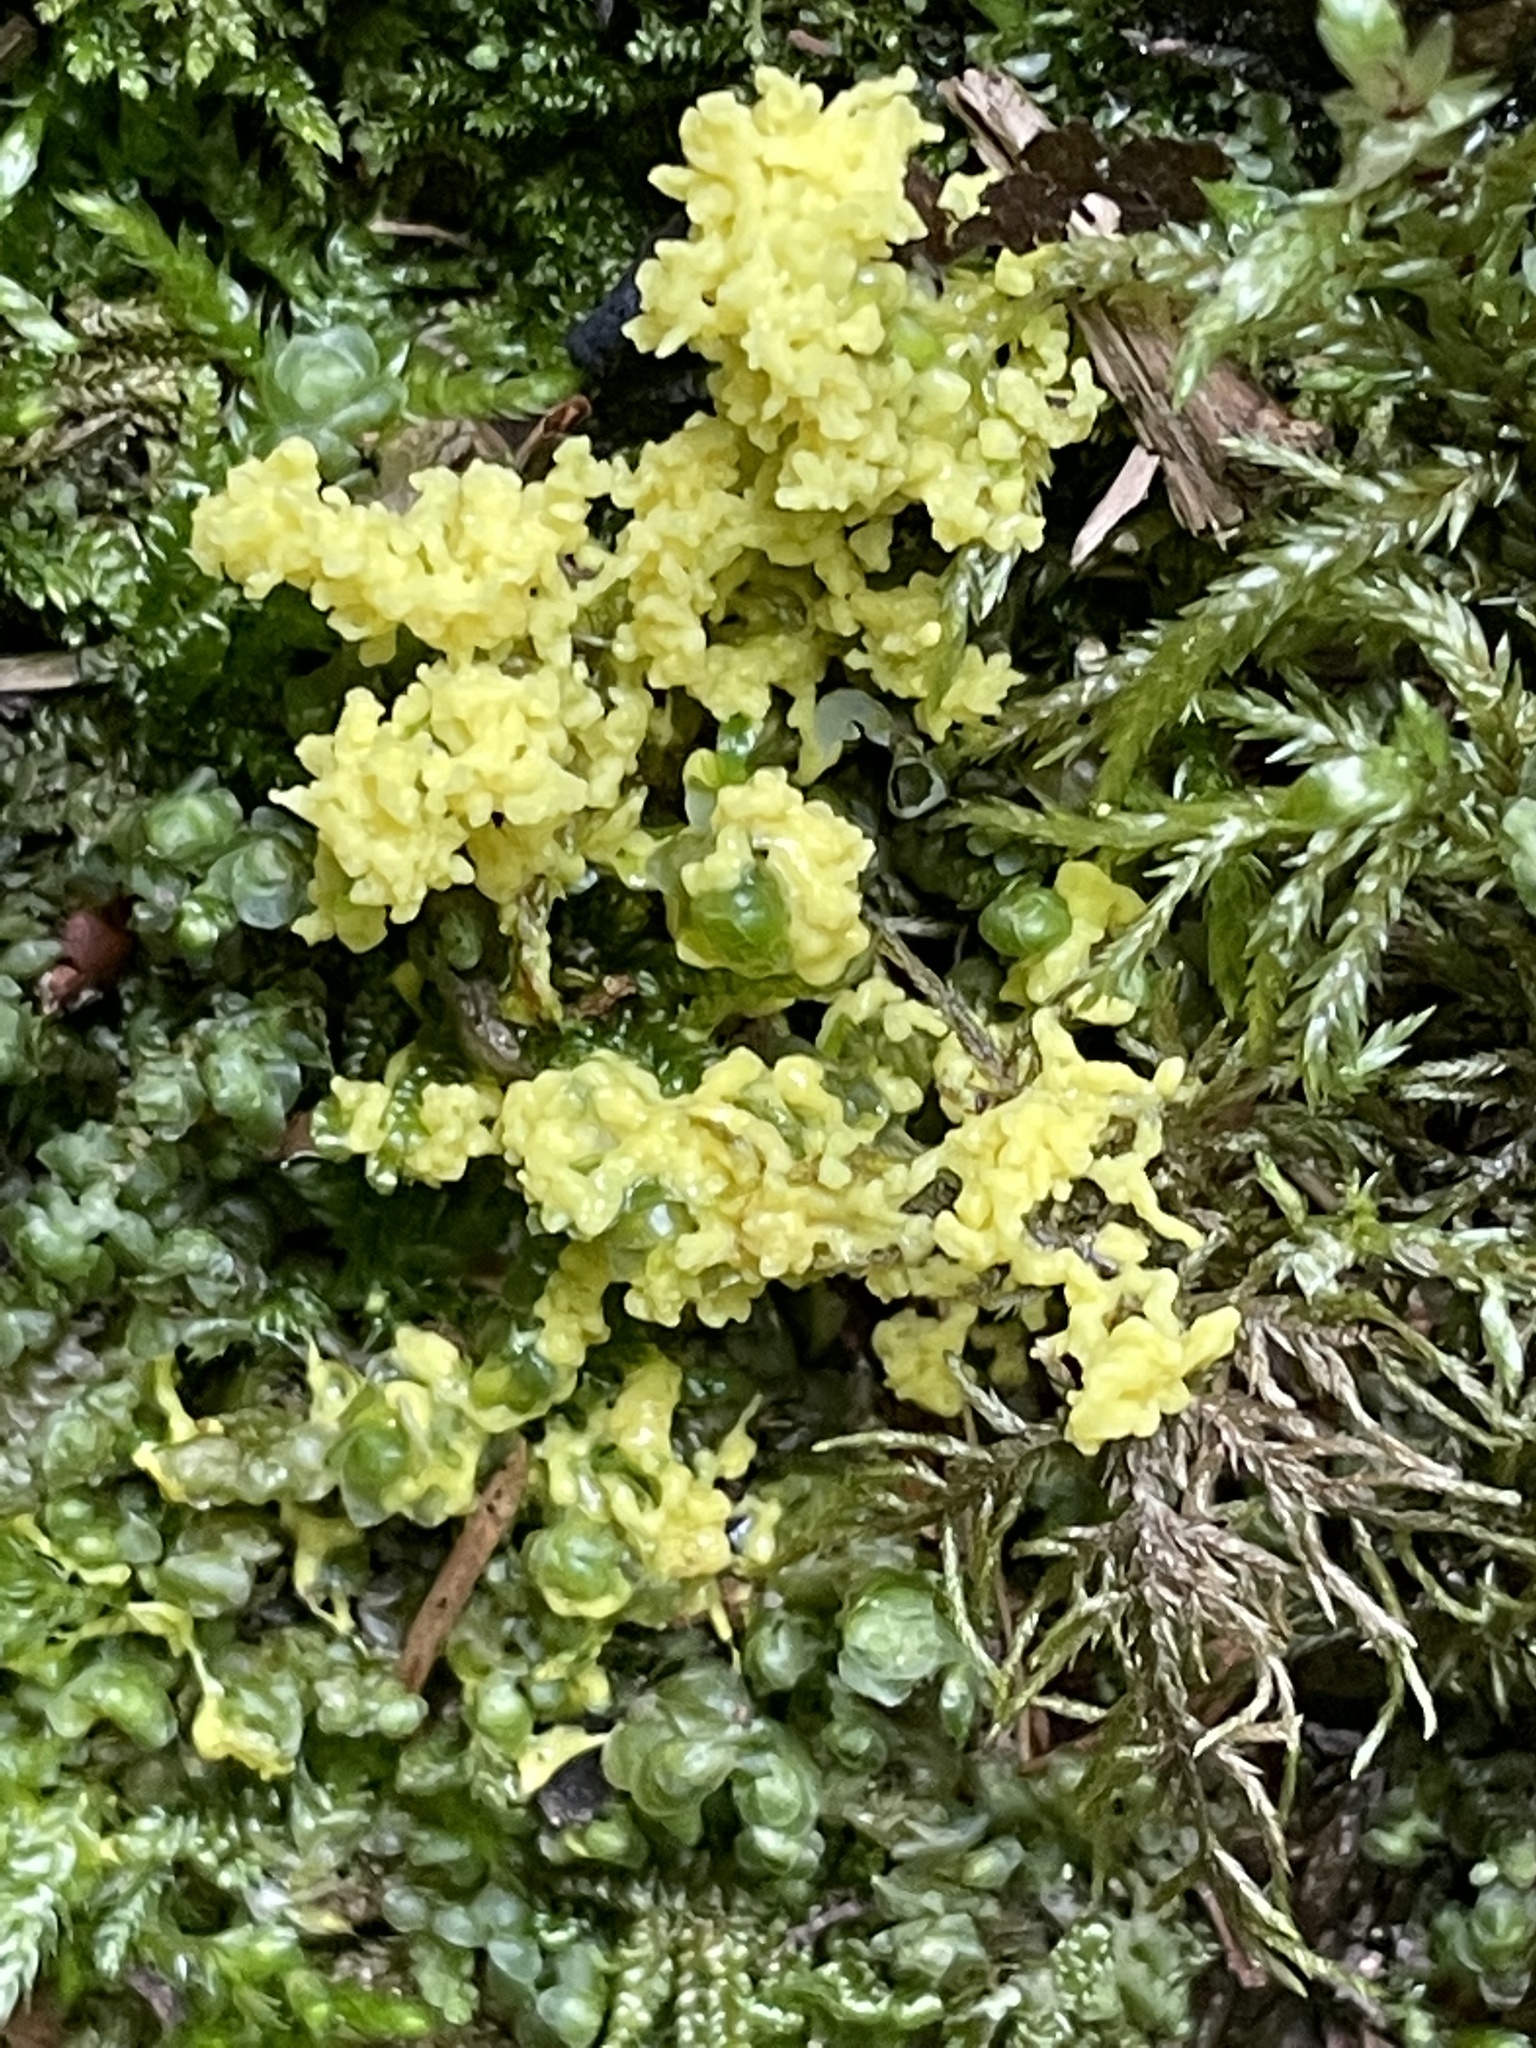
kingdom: Protozoa
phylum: Mycetozoa
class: Myxomycetes
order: Physarales
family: Physaraceae
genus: Fuligo
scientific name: Fuligo septica
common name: Dog vomit slime mold
